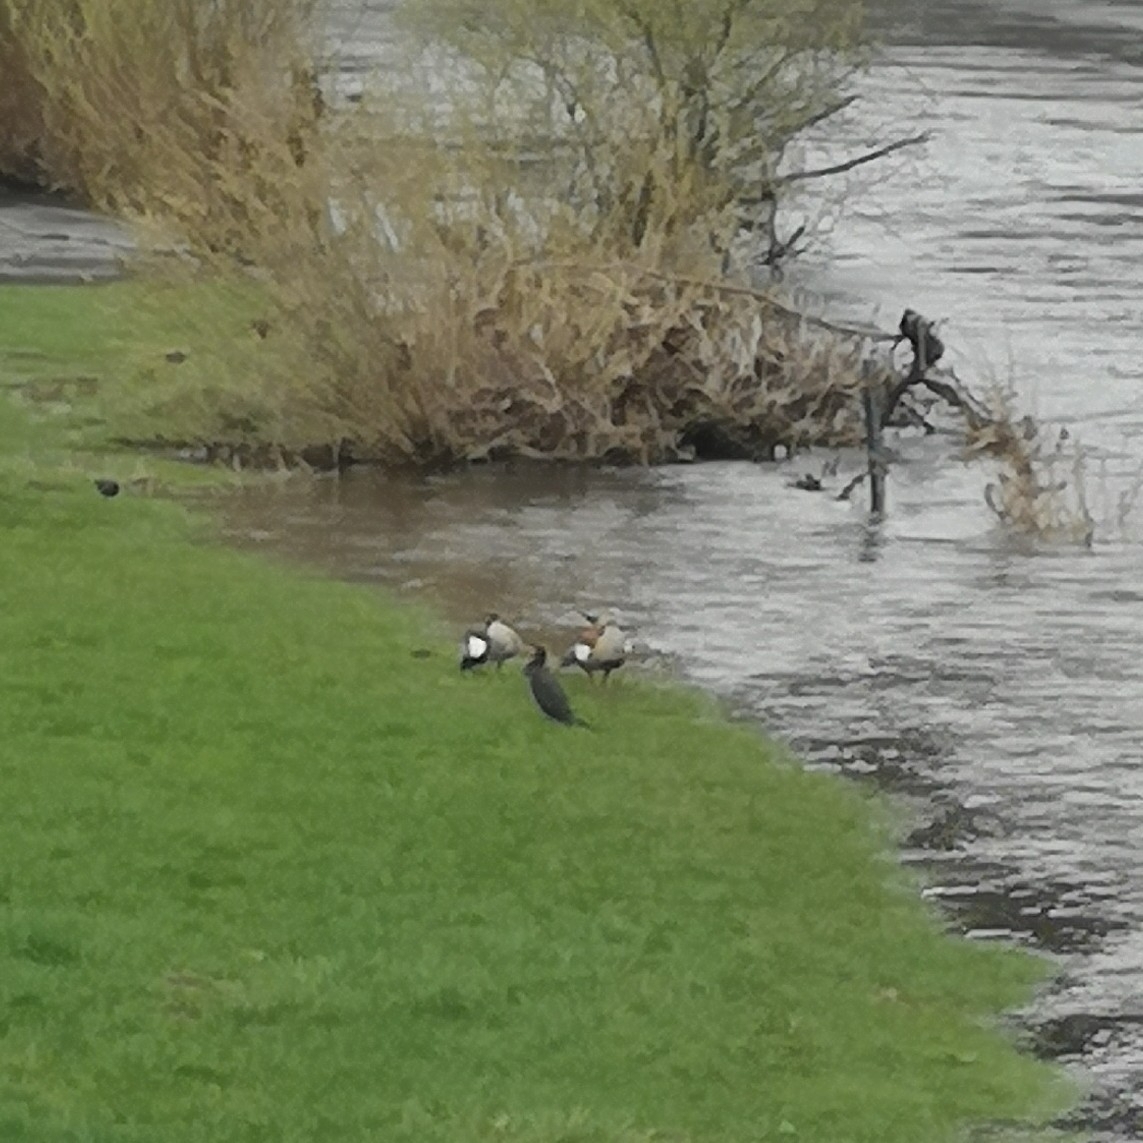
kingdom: Animalia
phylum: Chordata
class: Aves
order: Anseriformes
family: Anatidae
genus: Alopochen
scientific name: Alopochen aegyptiaca
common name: Egyptian goose
